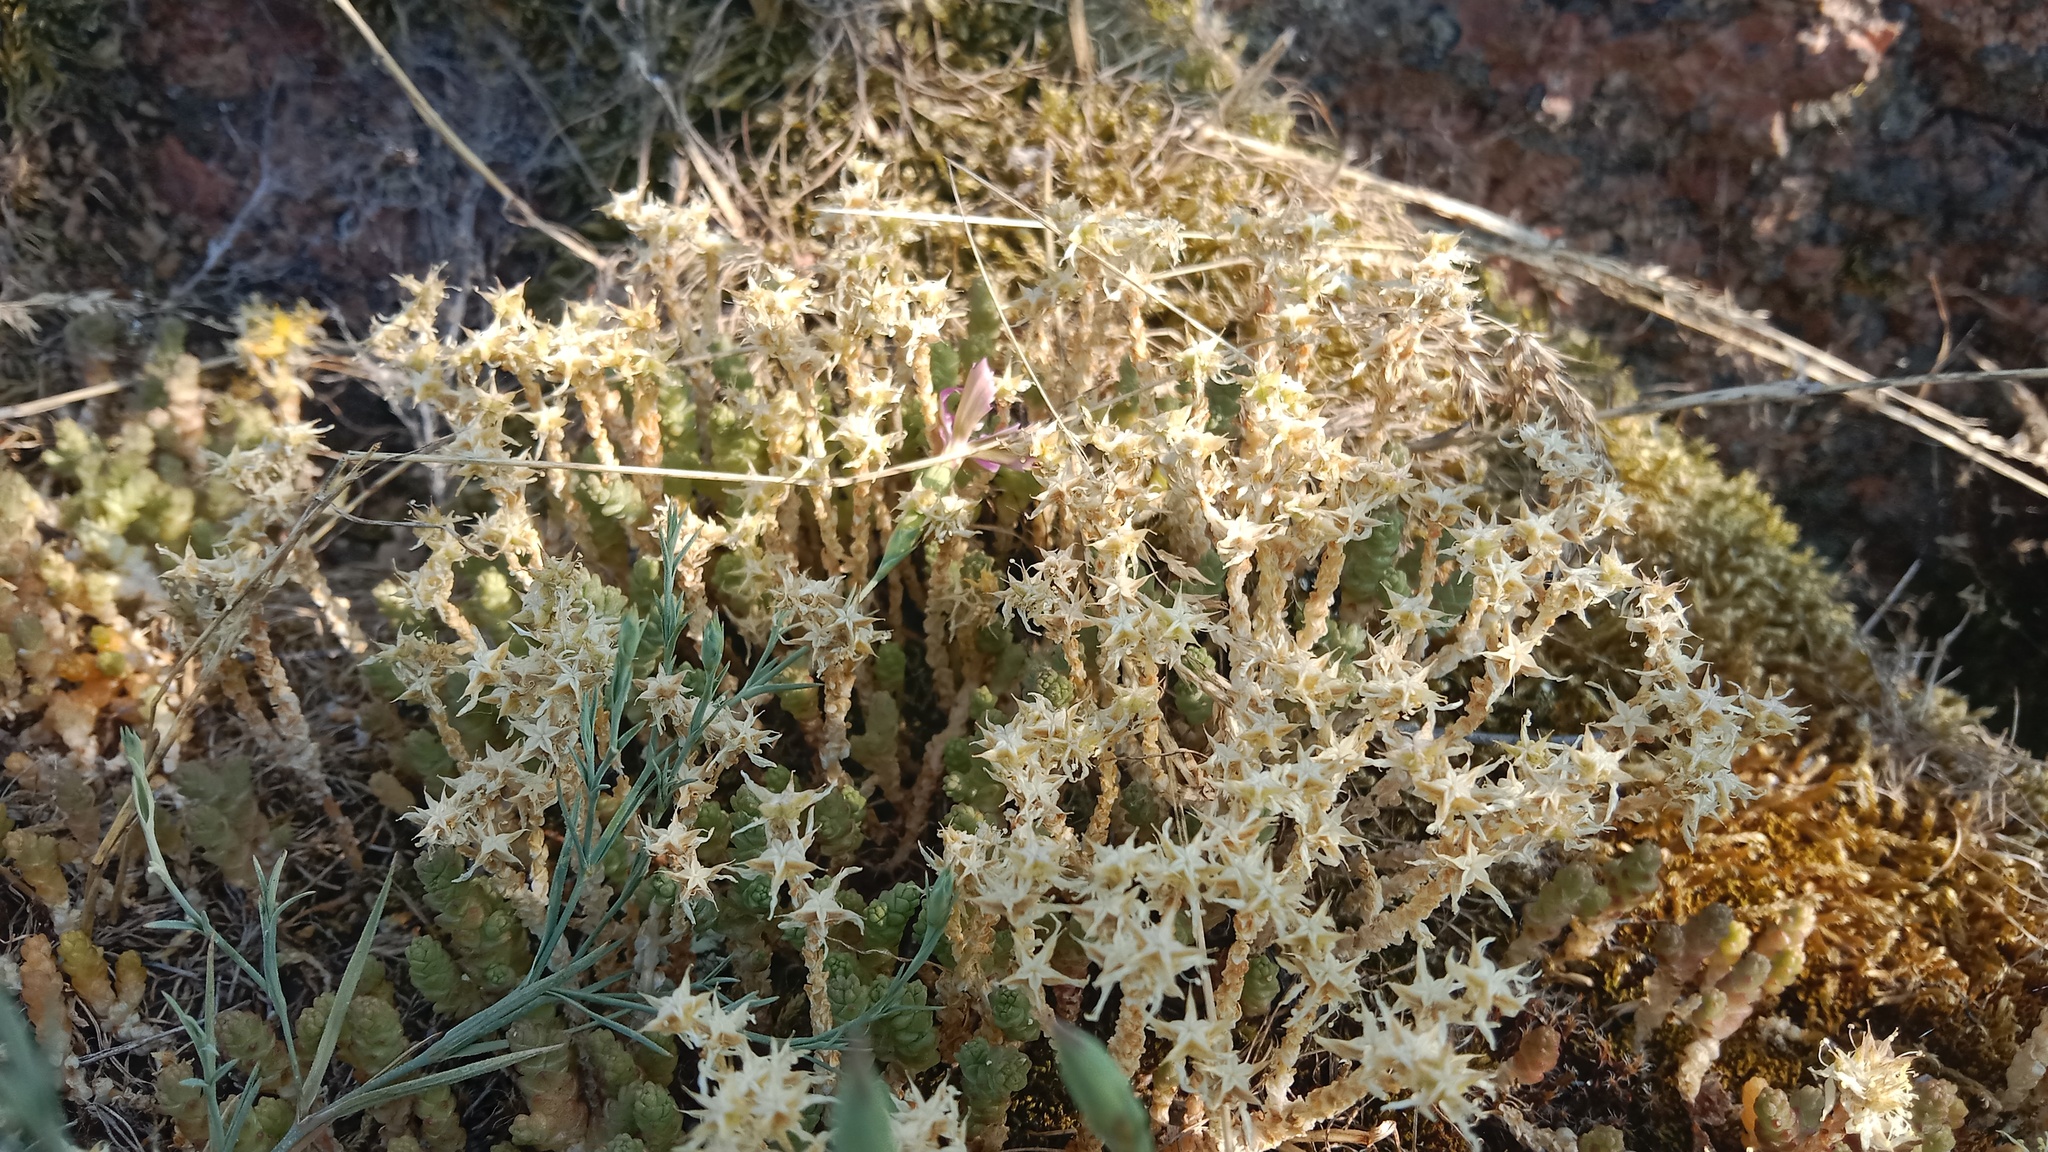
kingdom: Plantae
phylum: Tracheophyta
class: Magnoliopsida
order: Saxifragales
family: Crassulaceae
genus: Sedum
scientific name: Sedum acre
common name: Biting stonecrop
